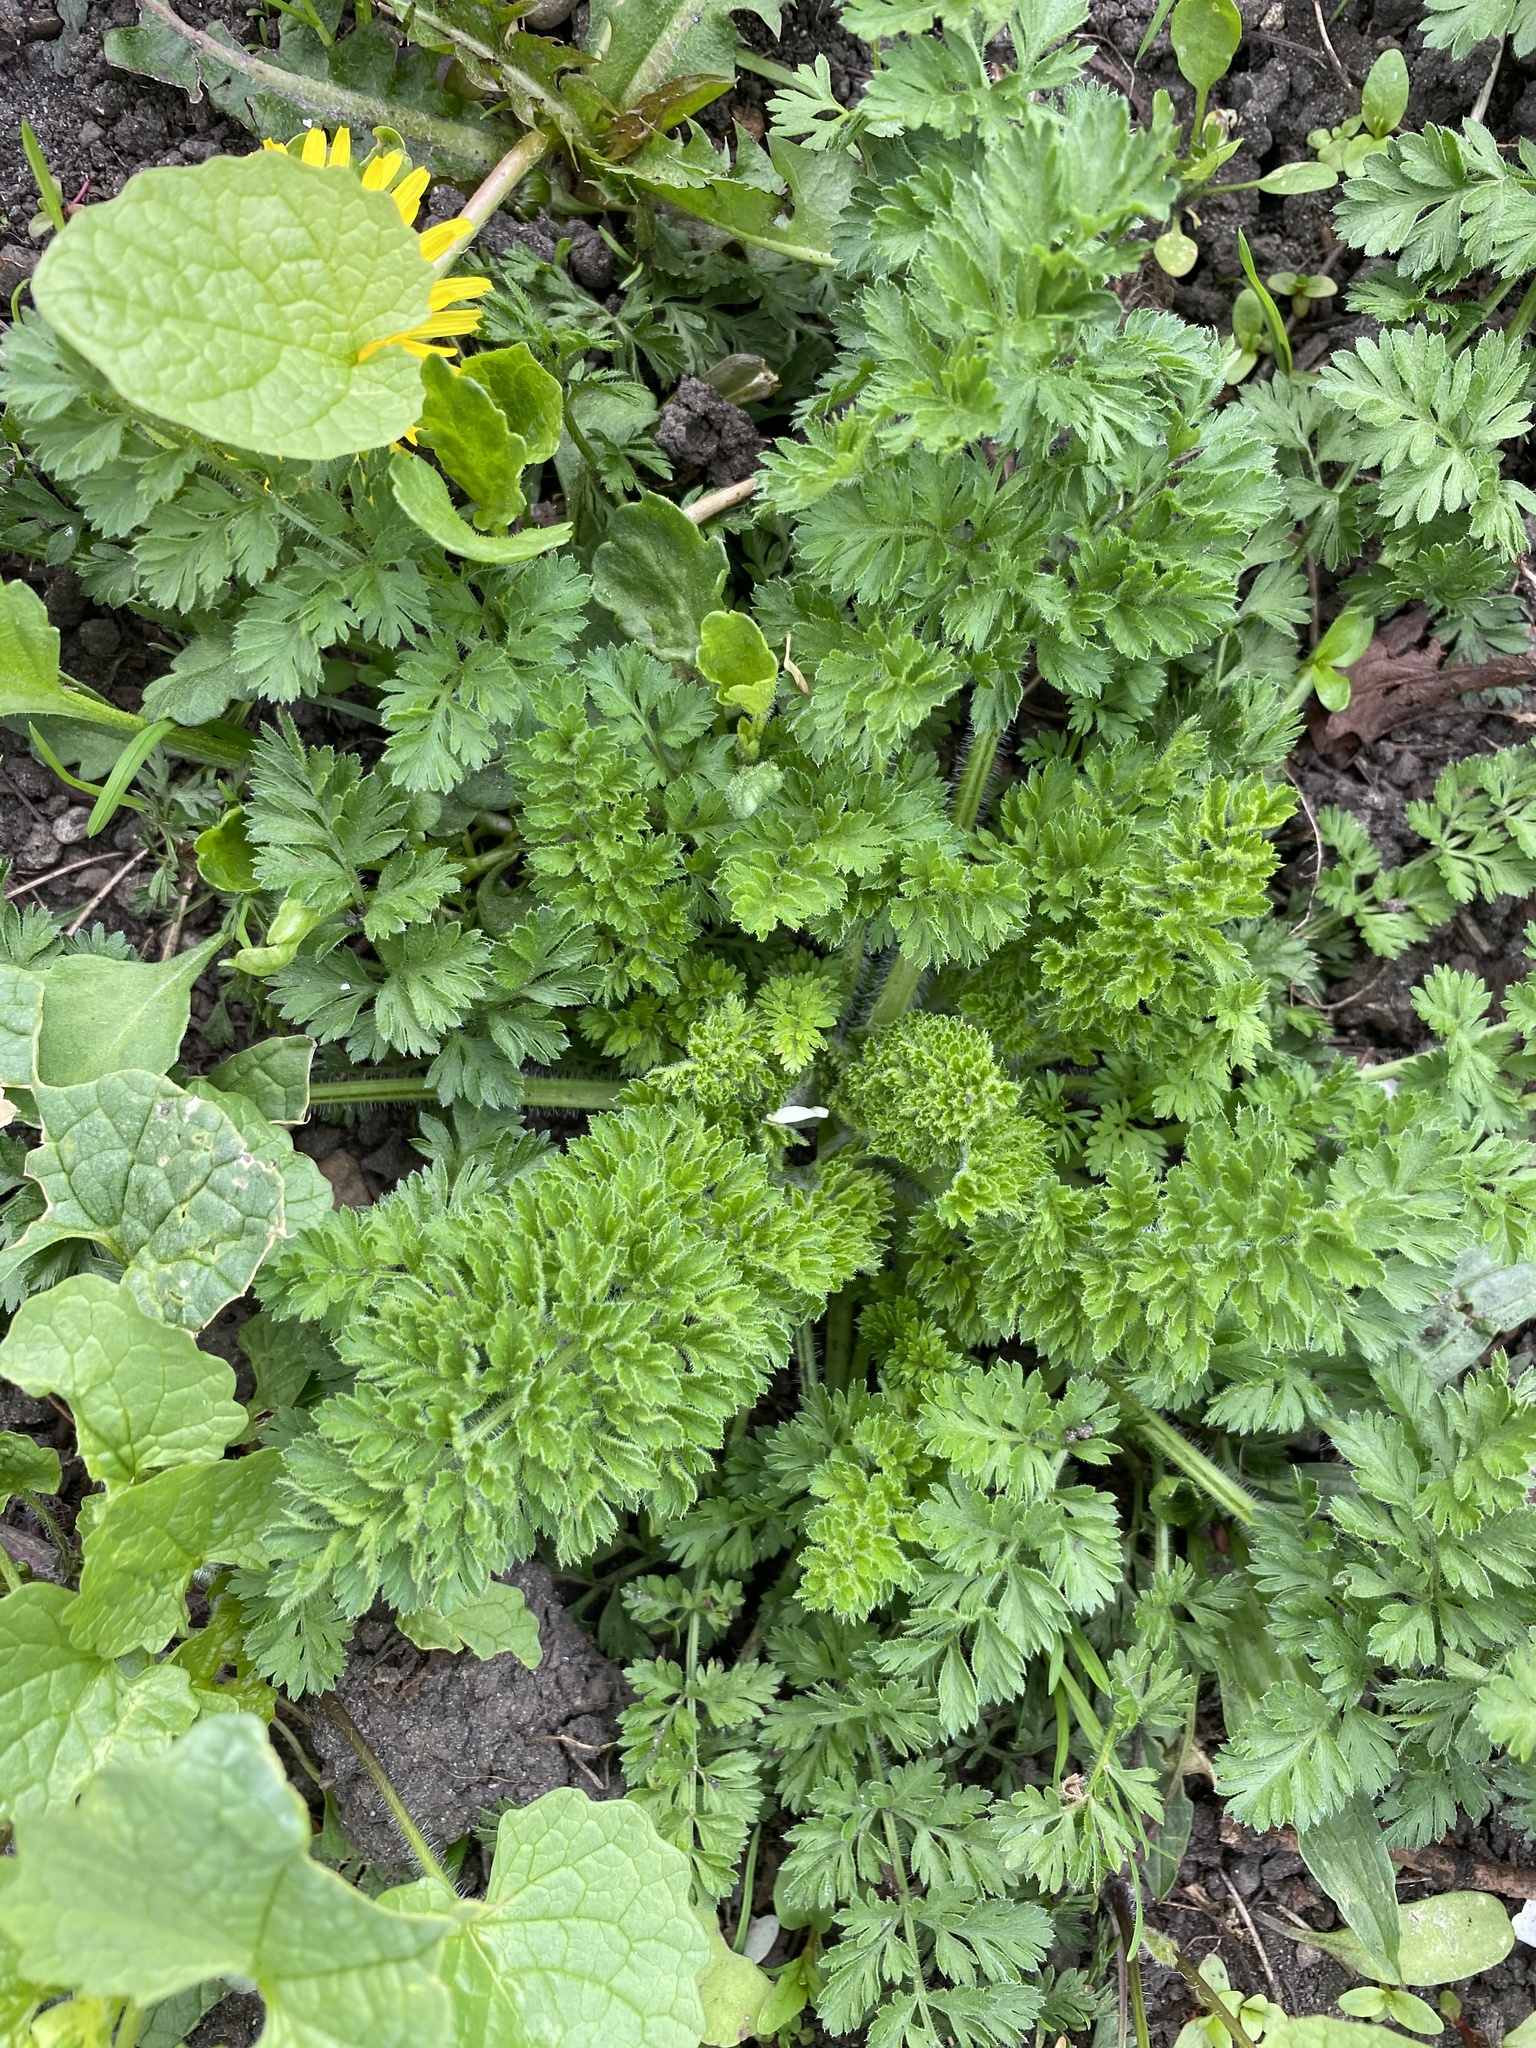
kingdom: Plantae
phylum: Tracheophyta
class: Magnoliopsida
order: Apiales
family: Apiaceae
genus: Daucus
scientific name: Daucus carota
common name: Wild carrot
